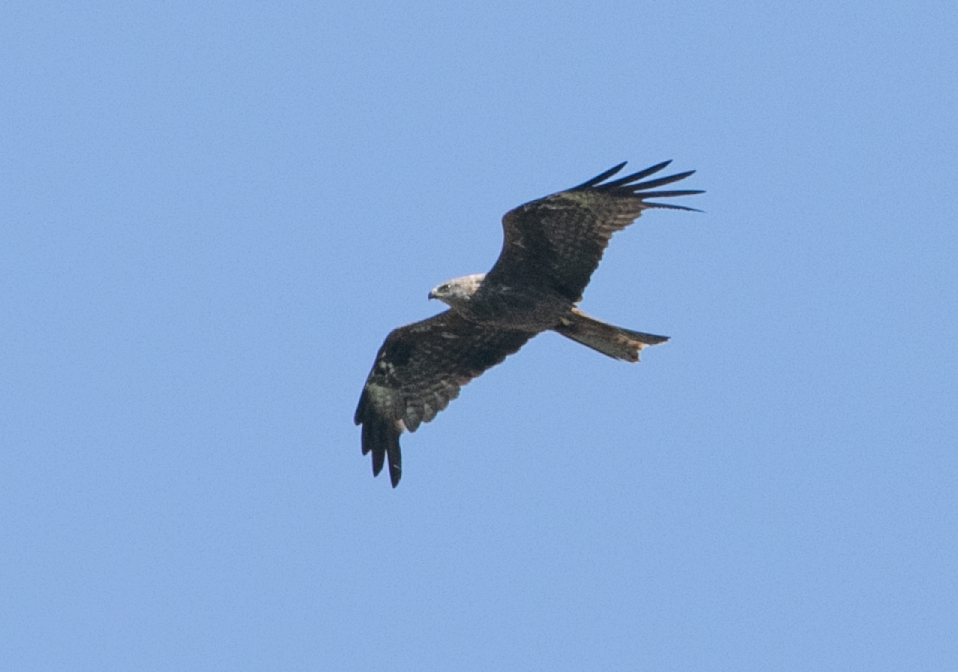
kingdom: Animalia
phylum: Chordata
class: Aves
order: Accipitriformes
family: Accipitridae
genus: Milvus
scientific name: Milvus migrans
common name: Black kite
